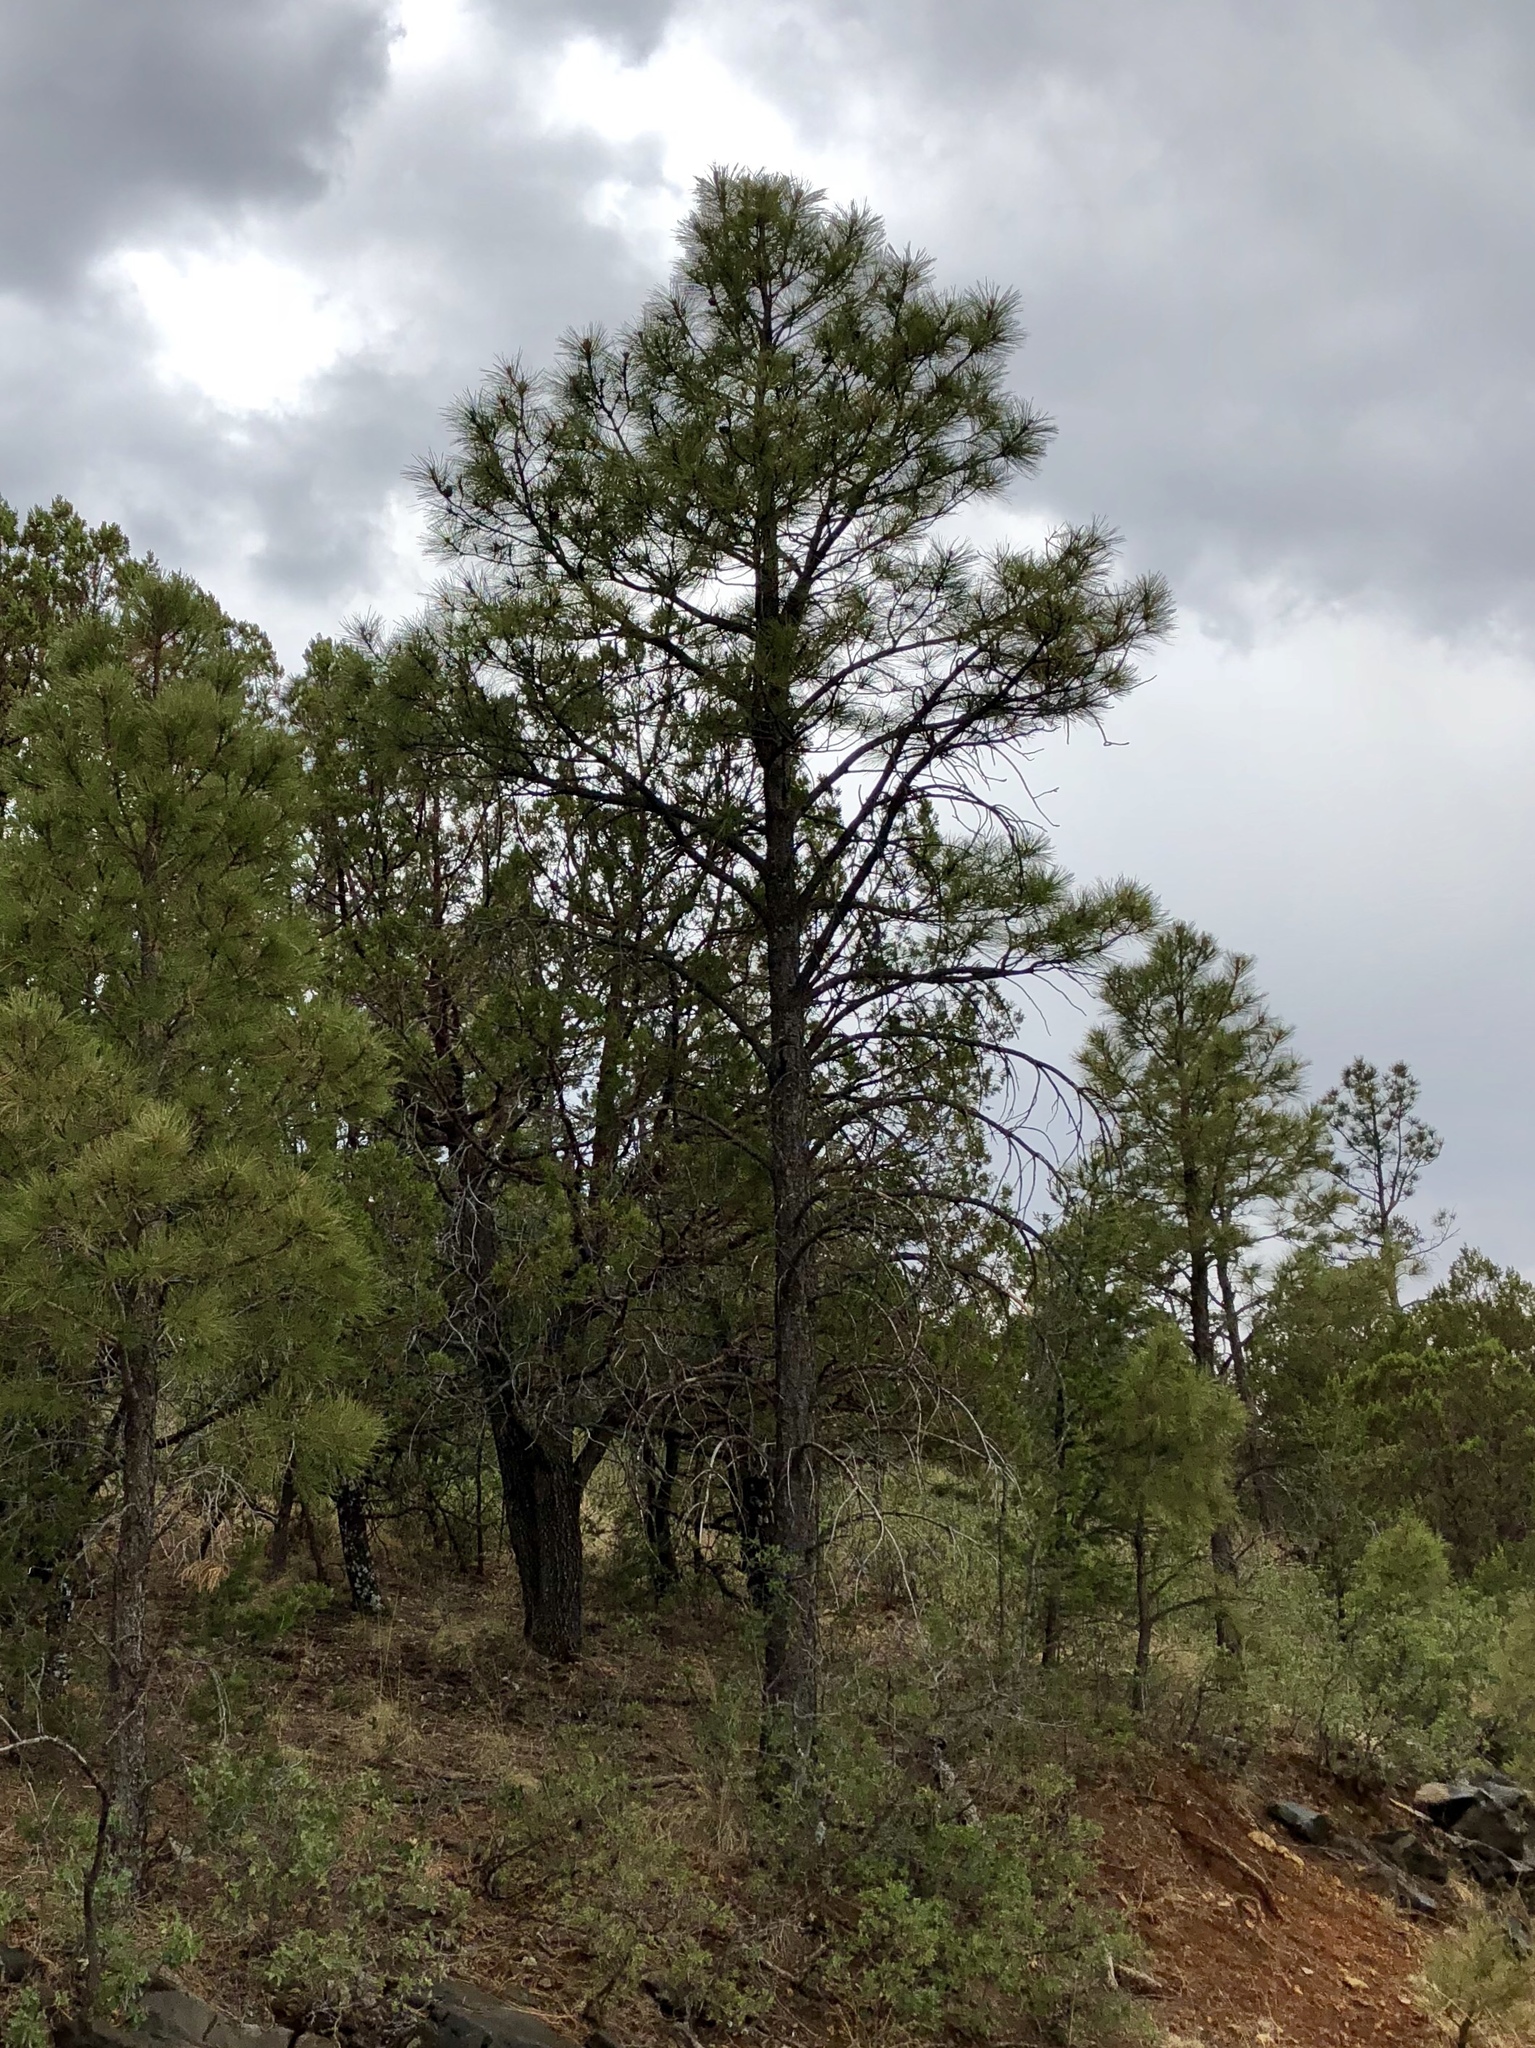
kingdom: Plantae
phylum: Tracheophyta
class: Pinopsida
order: Pinales
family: Pinaceae
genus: Pinus
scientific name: Pinus ponderosa
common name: Western yellow-pine
